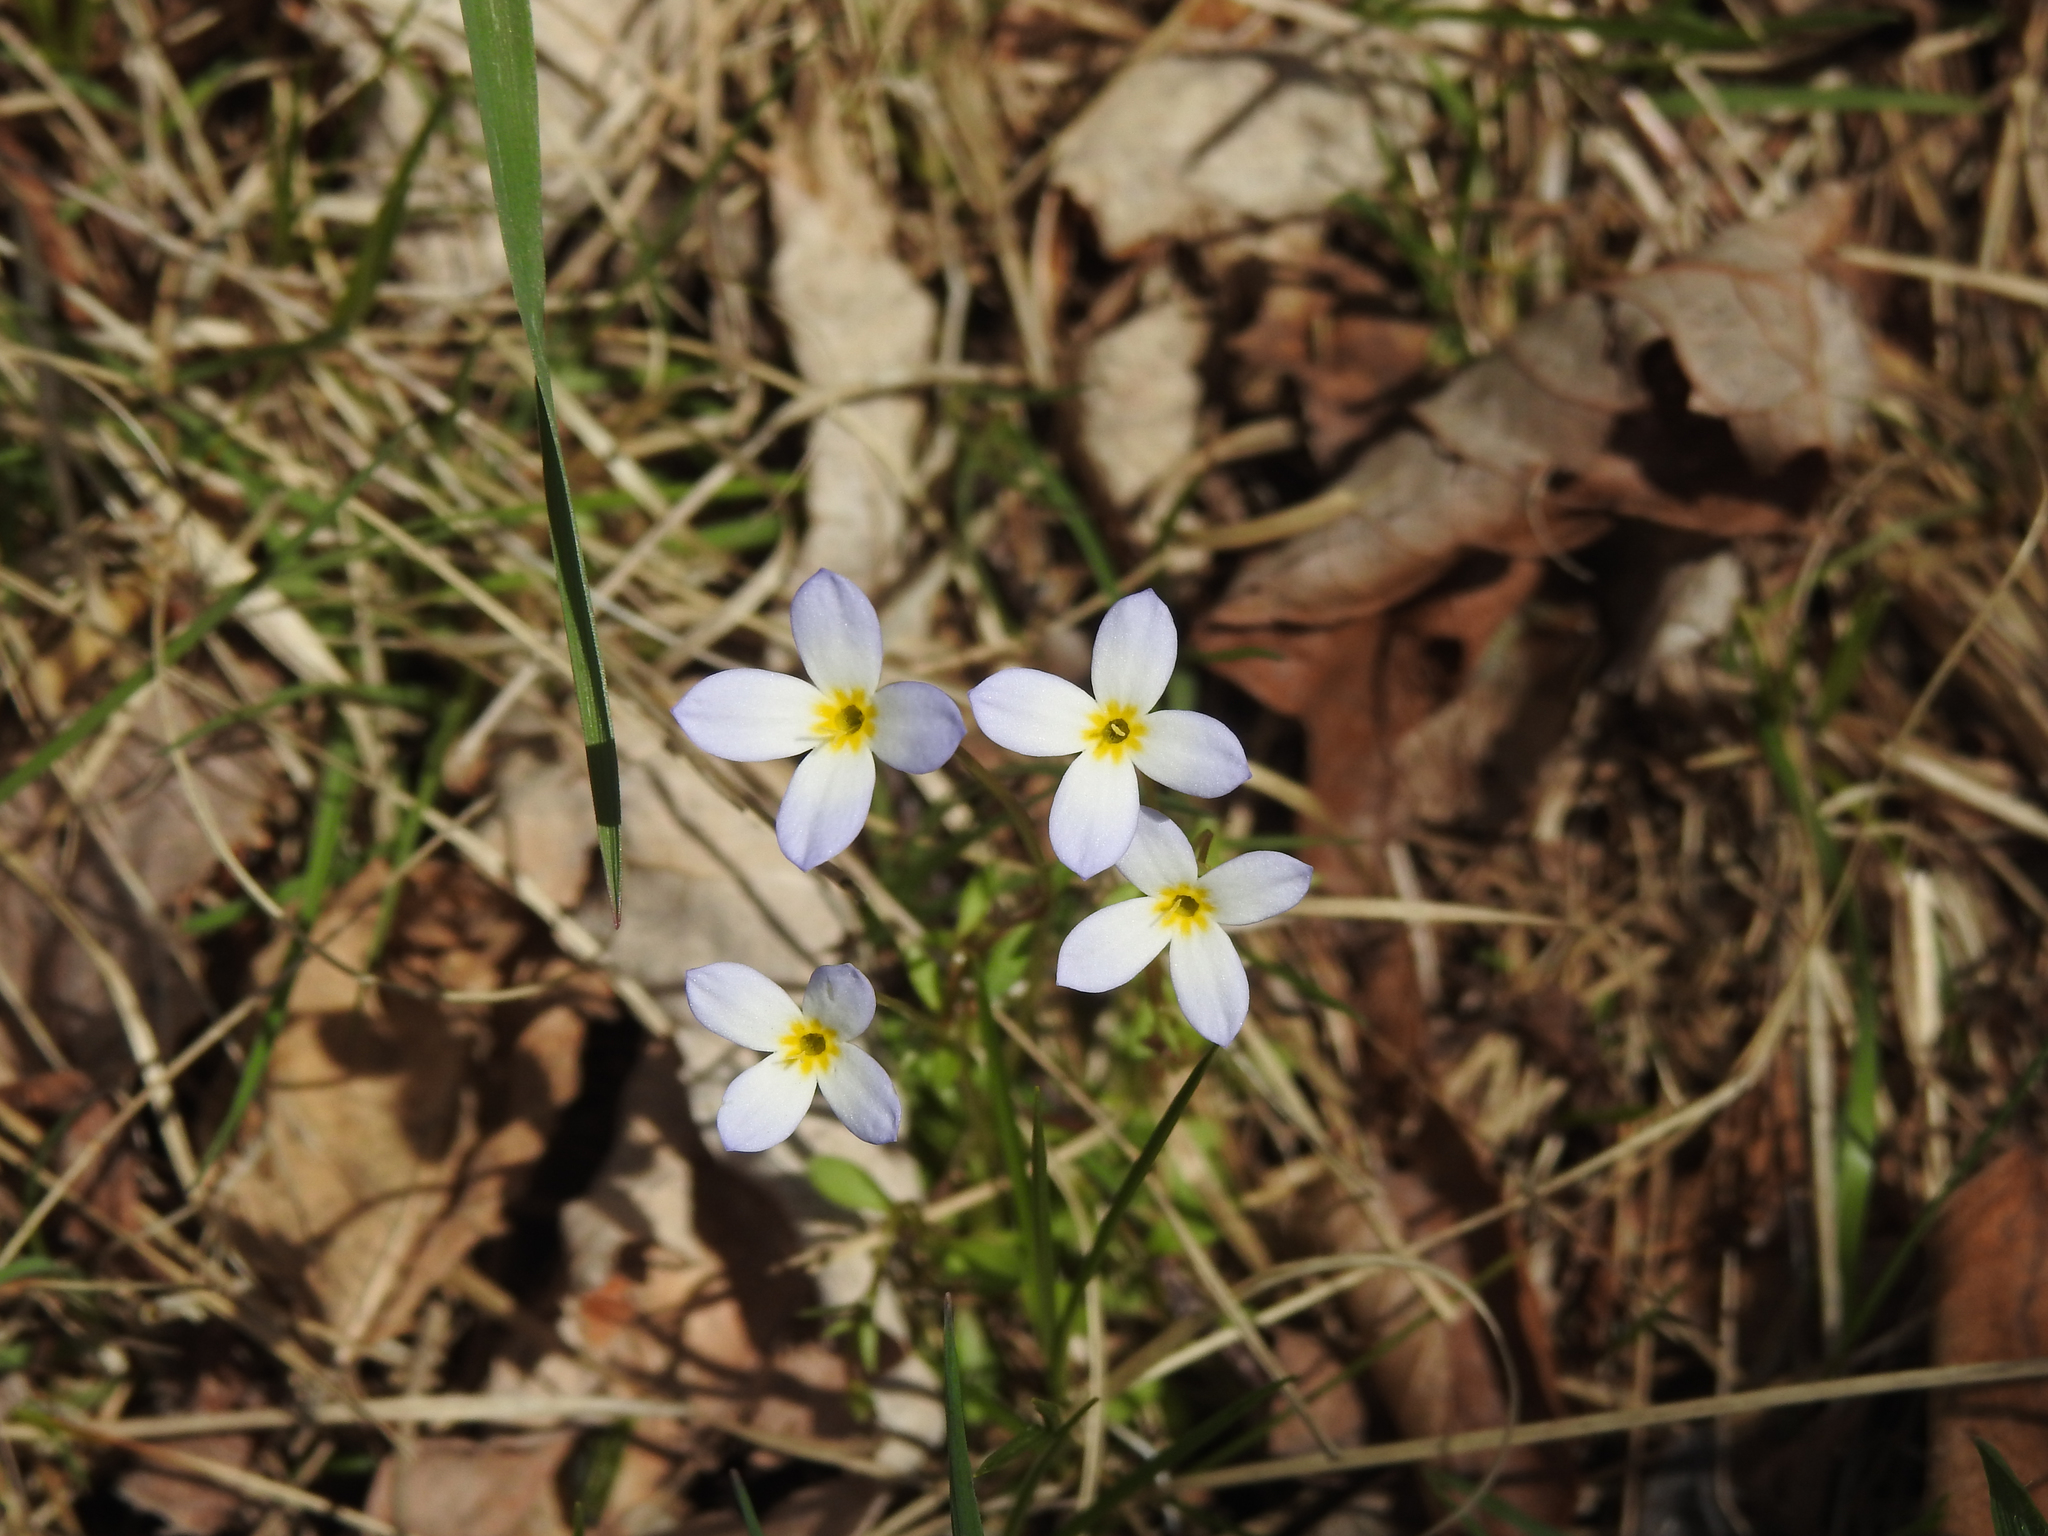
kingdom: Plantae
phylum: Tracheophyta
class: Magnoliopsida
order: Gentianales
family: Rubiaceae
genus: Houstonia
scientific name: Houstonia caerulea
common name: Bluets
